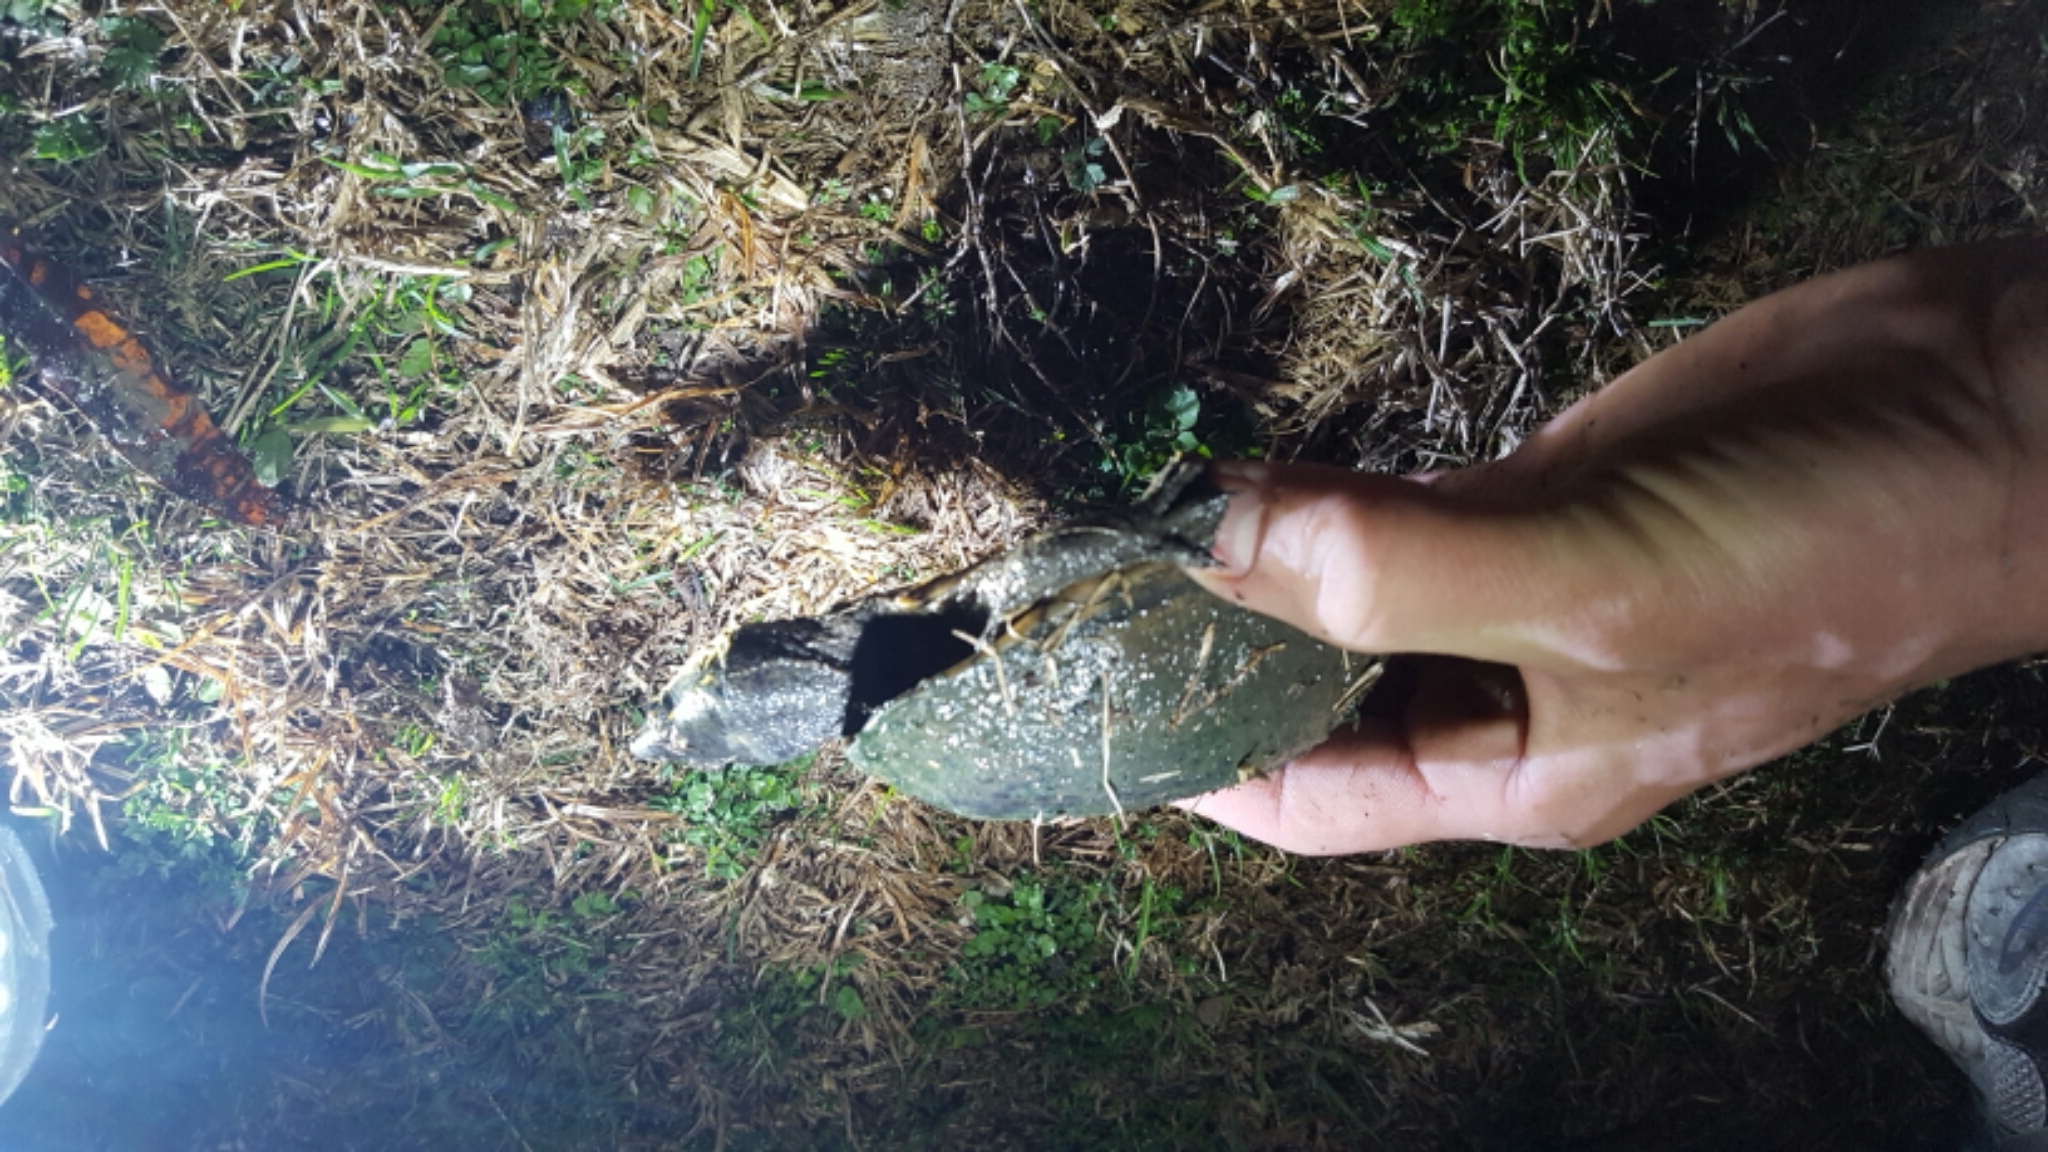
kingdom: Animalia
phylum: Chordata
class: Testudines
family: Kinosternidae
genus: Sternotherus
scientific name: Sternotherus odoratus
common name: Common musk turtle
